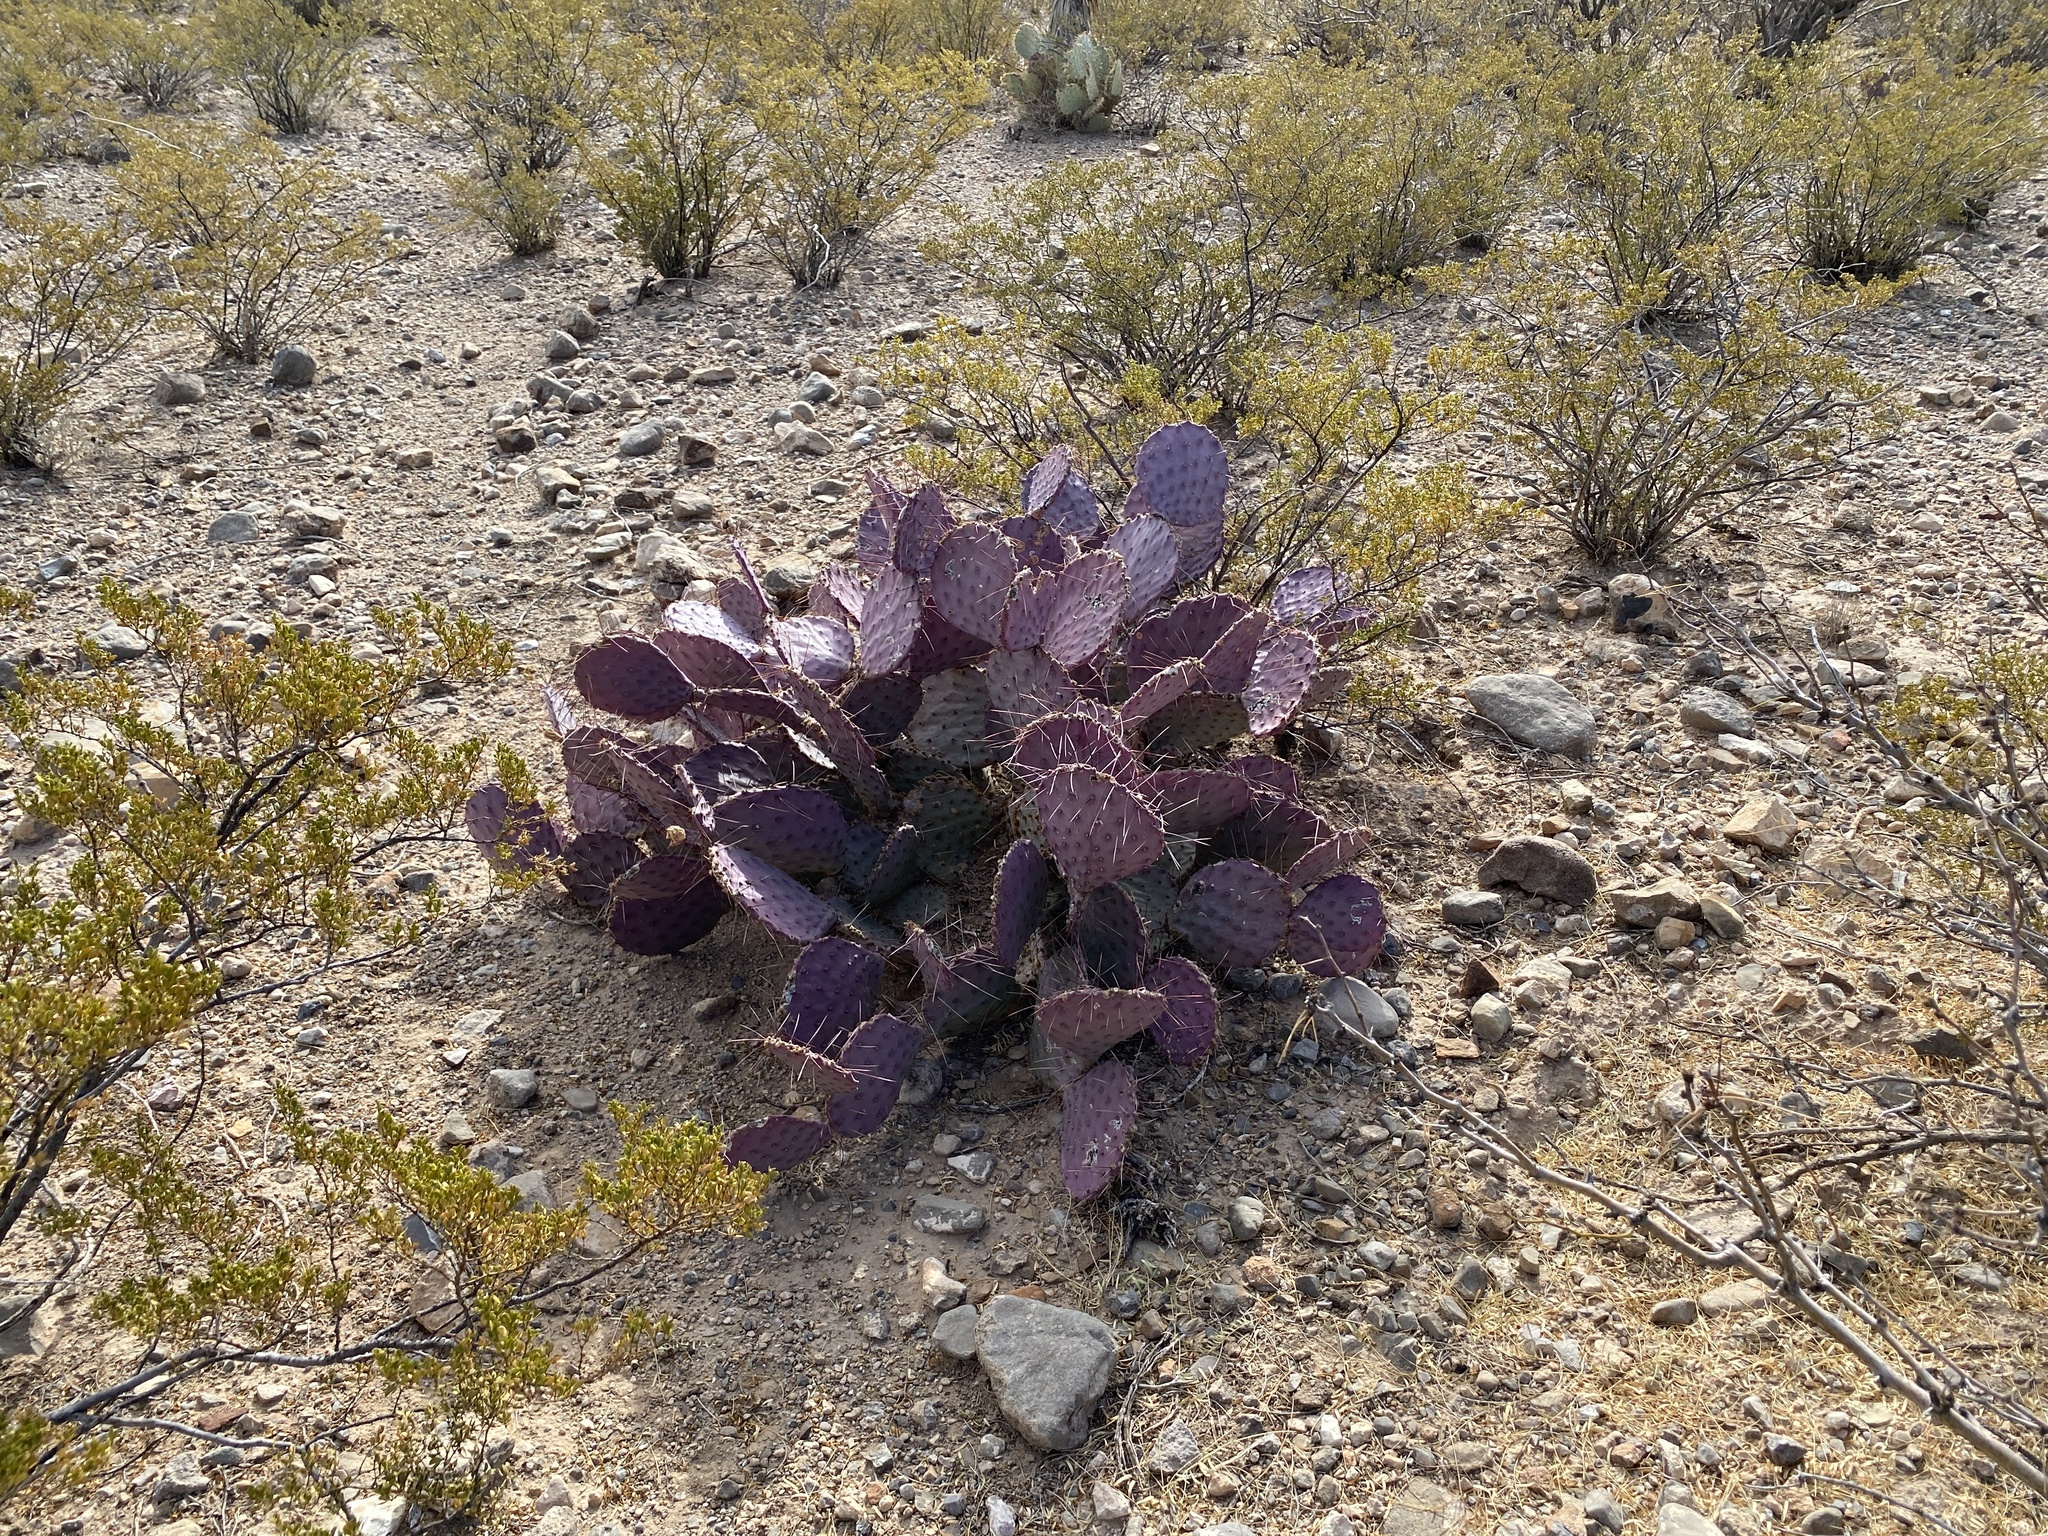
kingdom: Plantae
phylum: Tracheophyta
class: Magnoliopsida
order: Caryophyllales
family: Cactaceae
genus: Opuntia
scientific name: Opuntia macrocentra
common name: Purple prickly-pear
